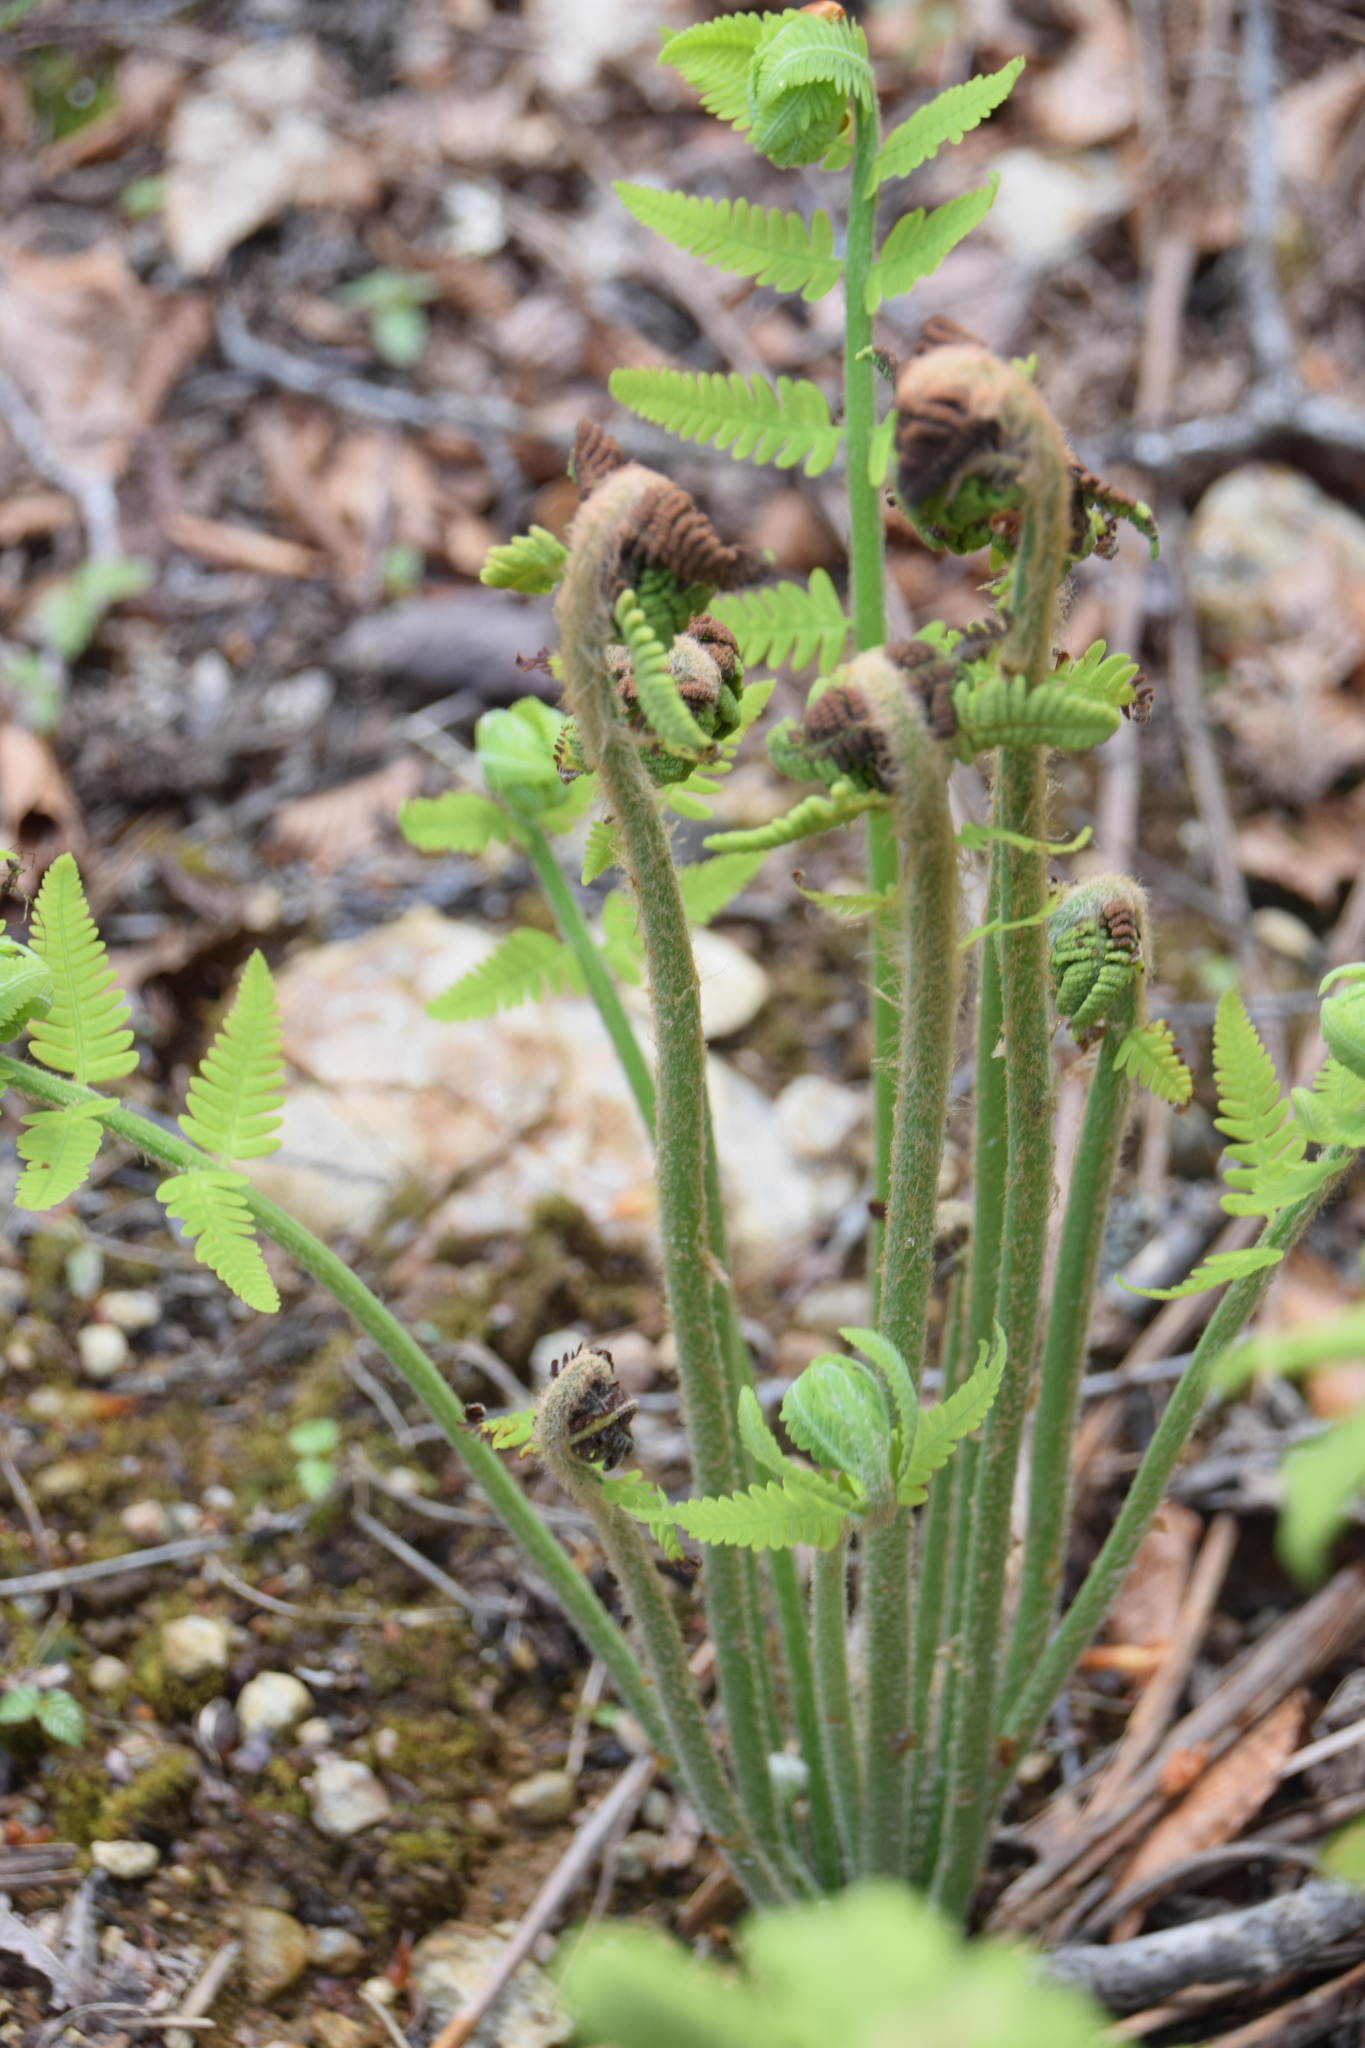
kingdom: Plantae
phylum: Tracheophyta
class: Polypodiopsida
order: Osmundales
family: Osmundaceae
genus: Claytosmunda
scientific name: Claytosmunda claytoniana
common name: Clayton's fern
